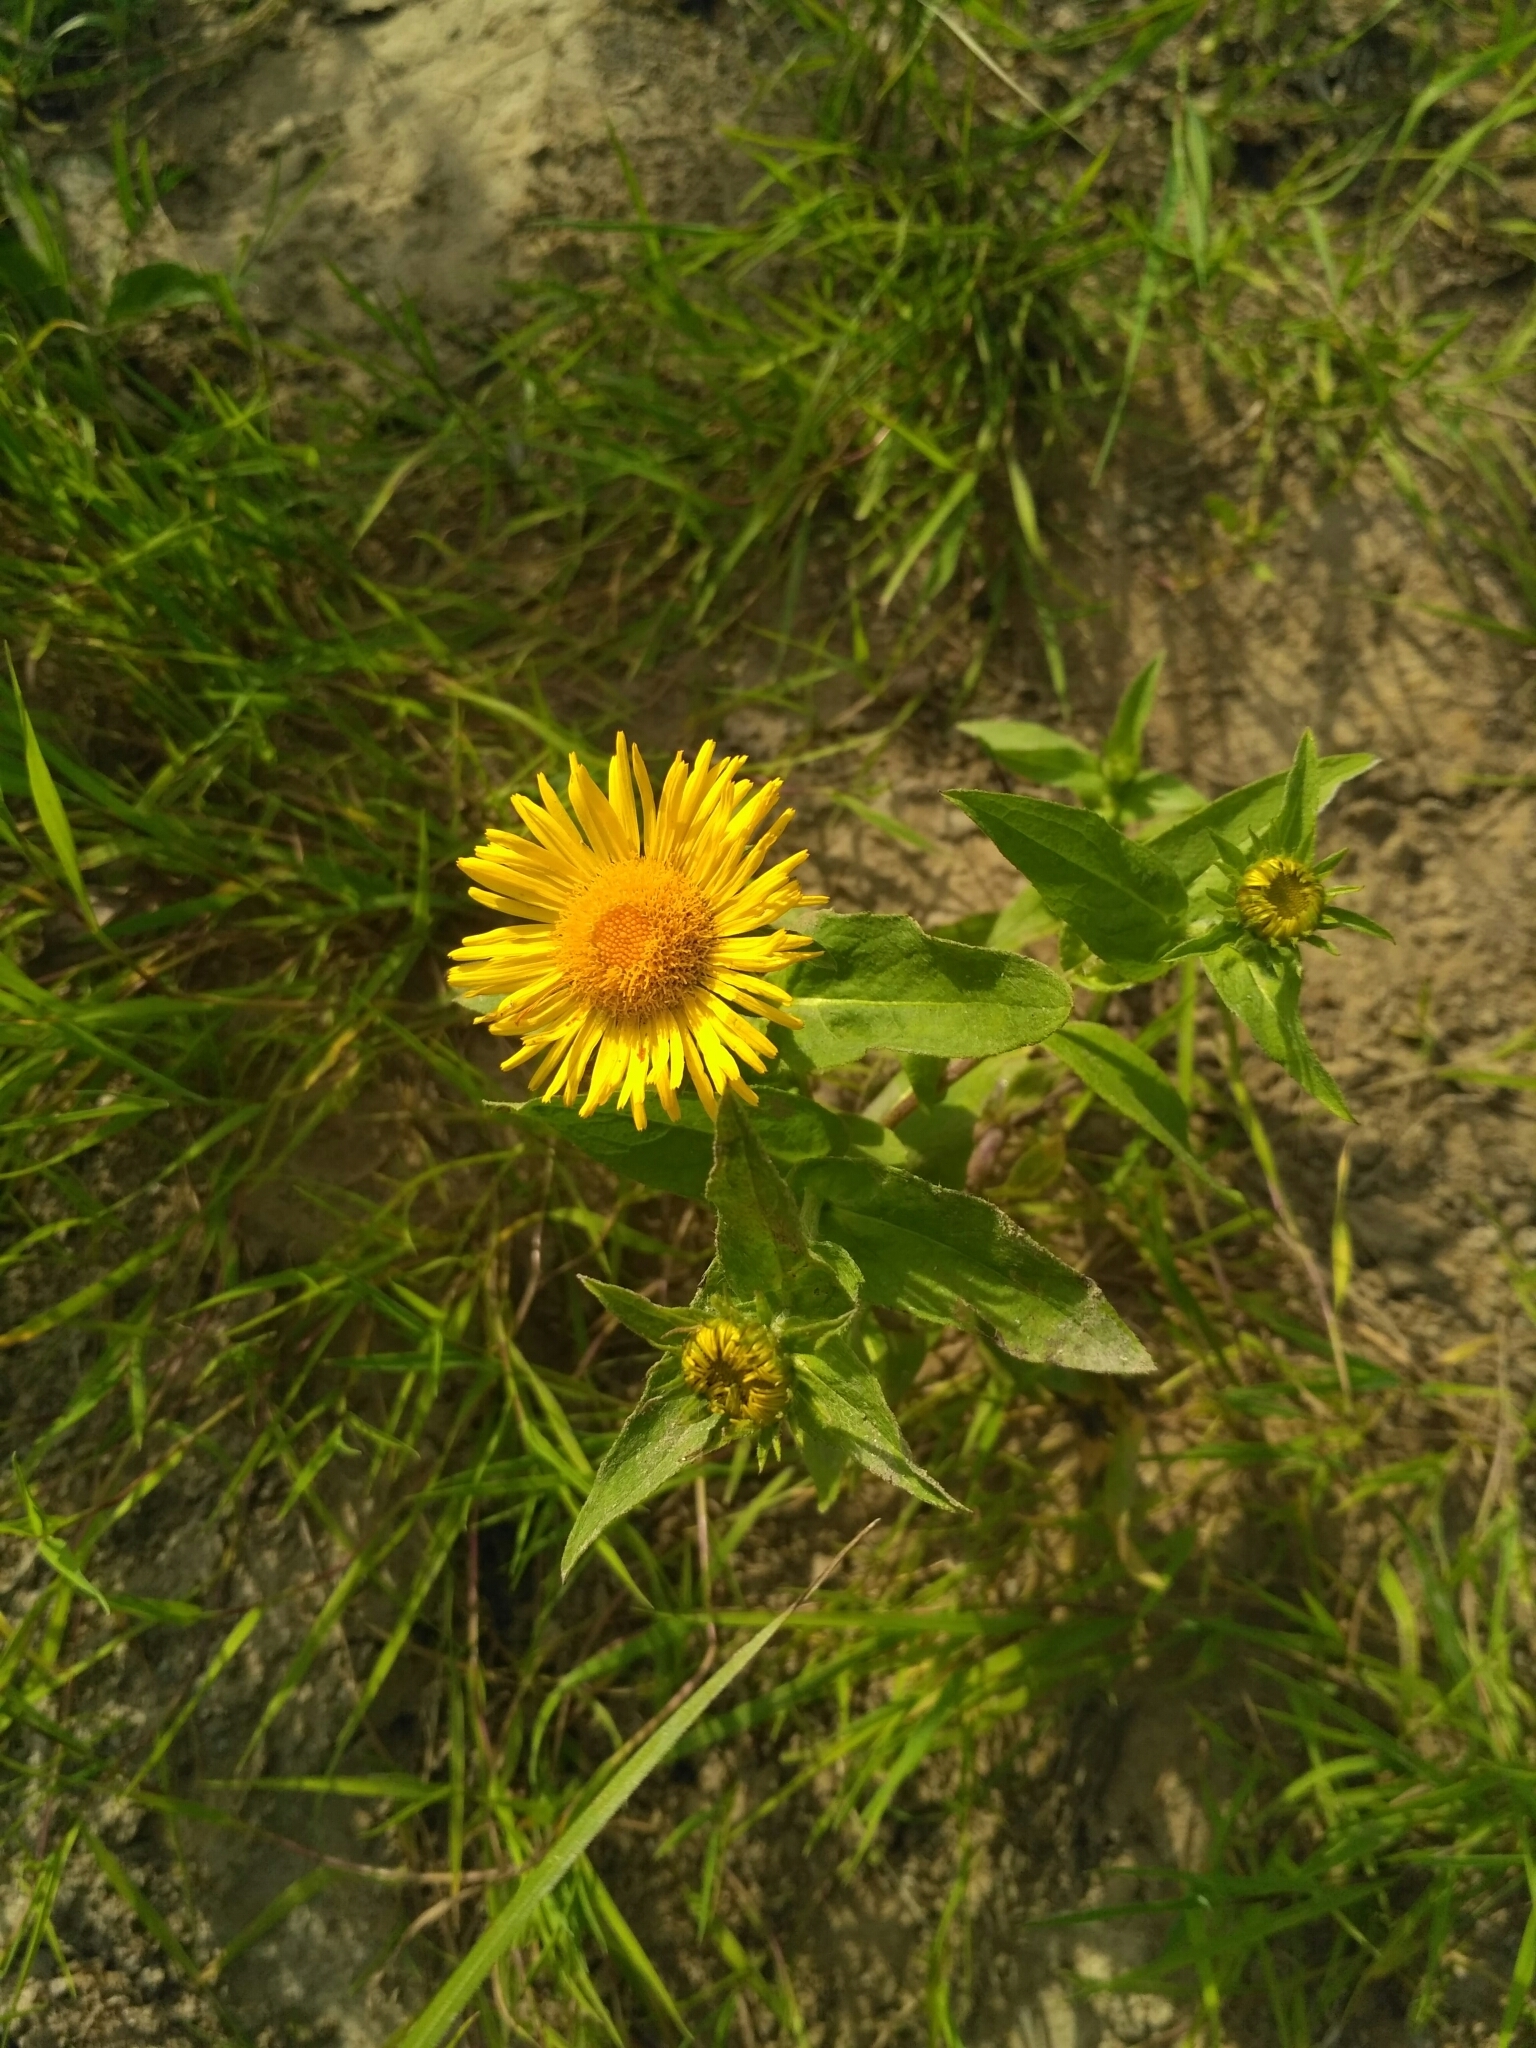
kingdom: Plantae
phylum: Tracheophyta
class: Magnoliopsida
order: Asterales
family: Asteraceae
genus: Pentanema
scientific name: Pentanema britannicum
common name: British elecampane
